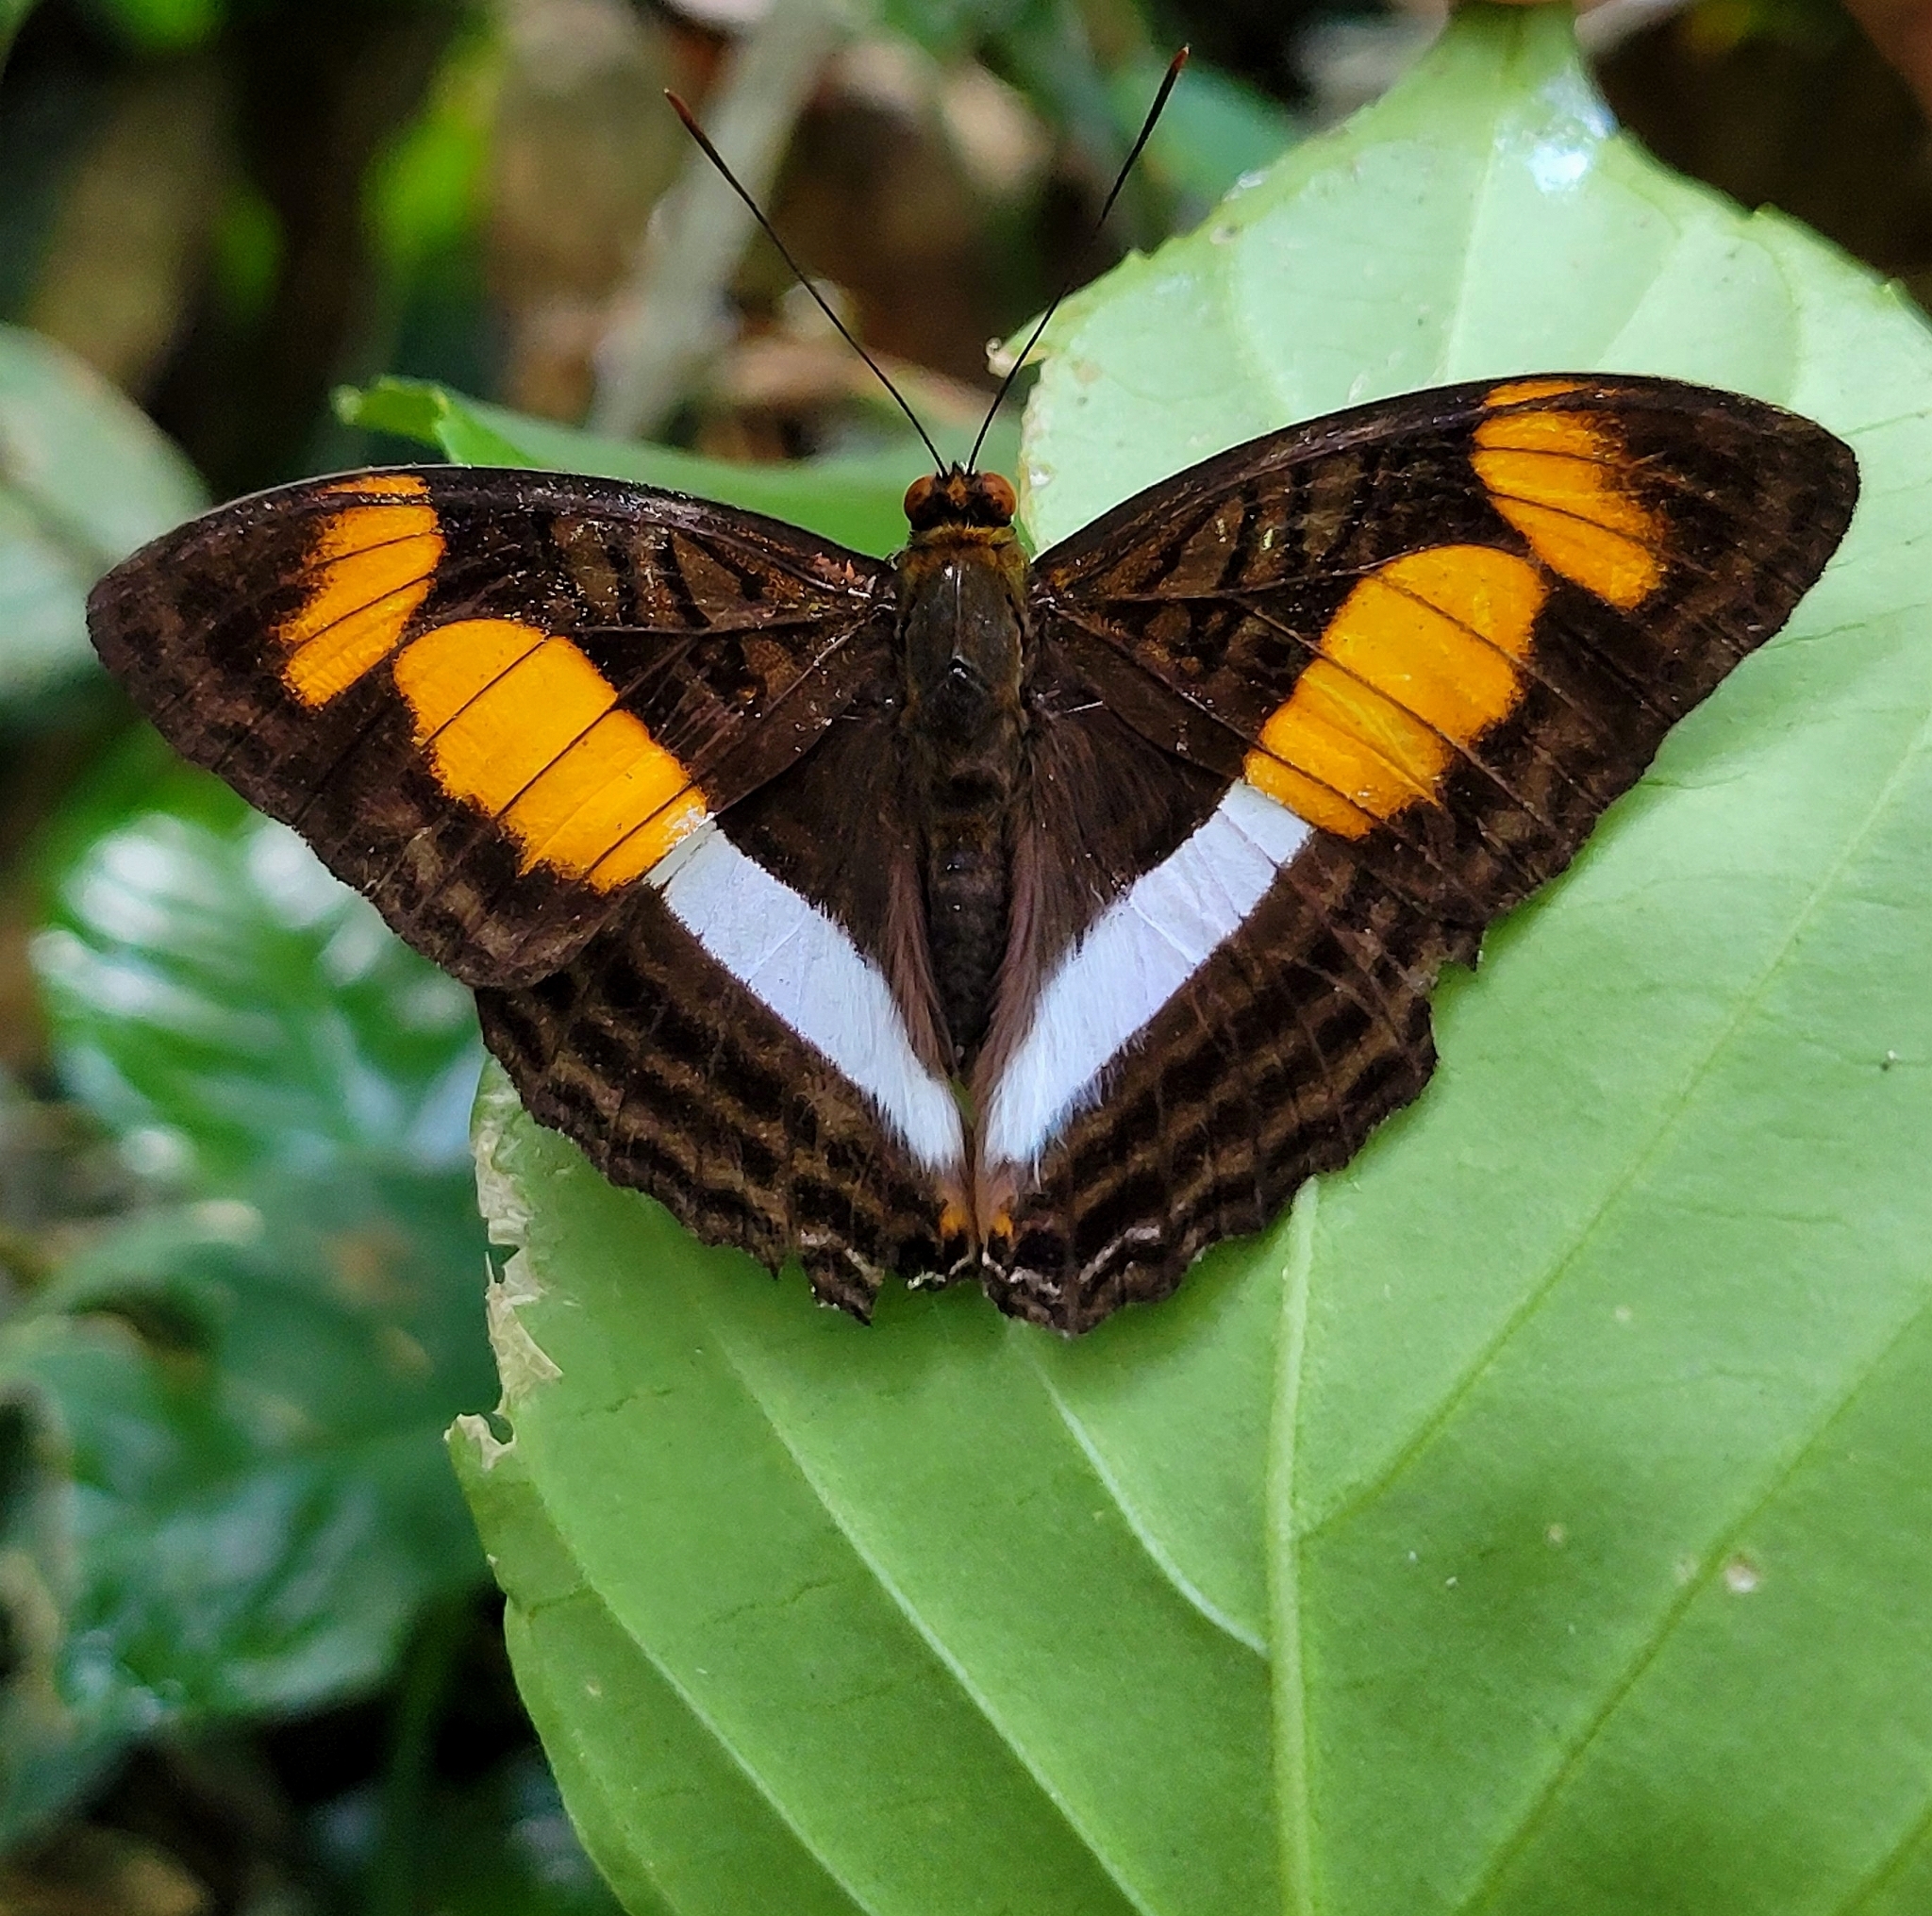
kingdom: Animalia
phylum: Arthropoda
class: Insecta
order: Lepidoptera
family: Nymphalidae
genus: Limenitis
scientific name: Limenitis melona
